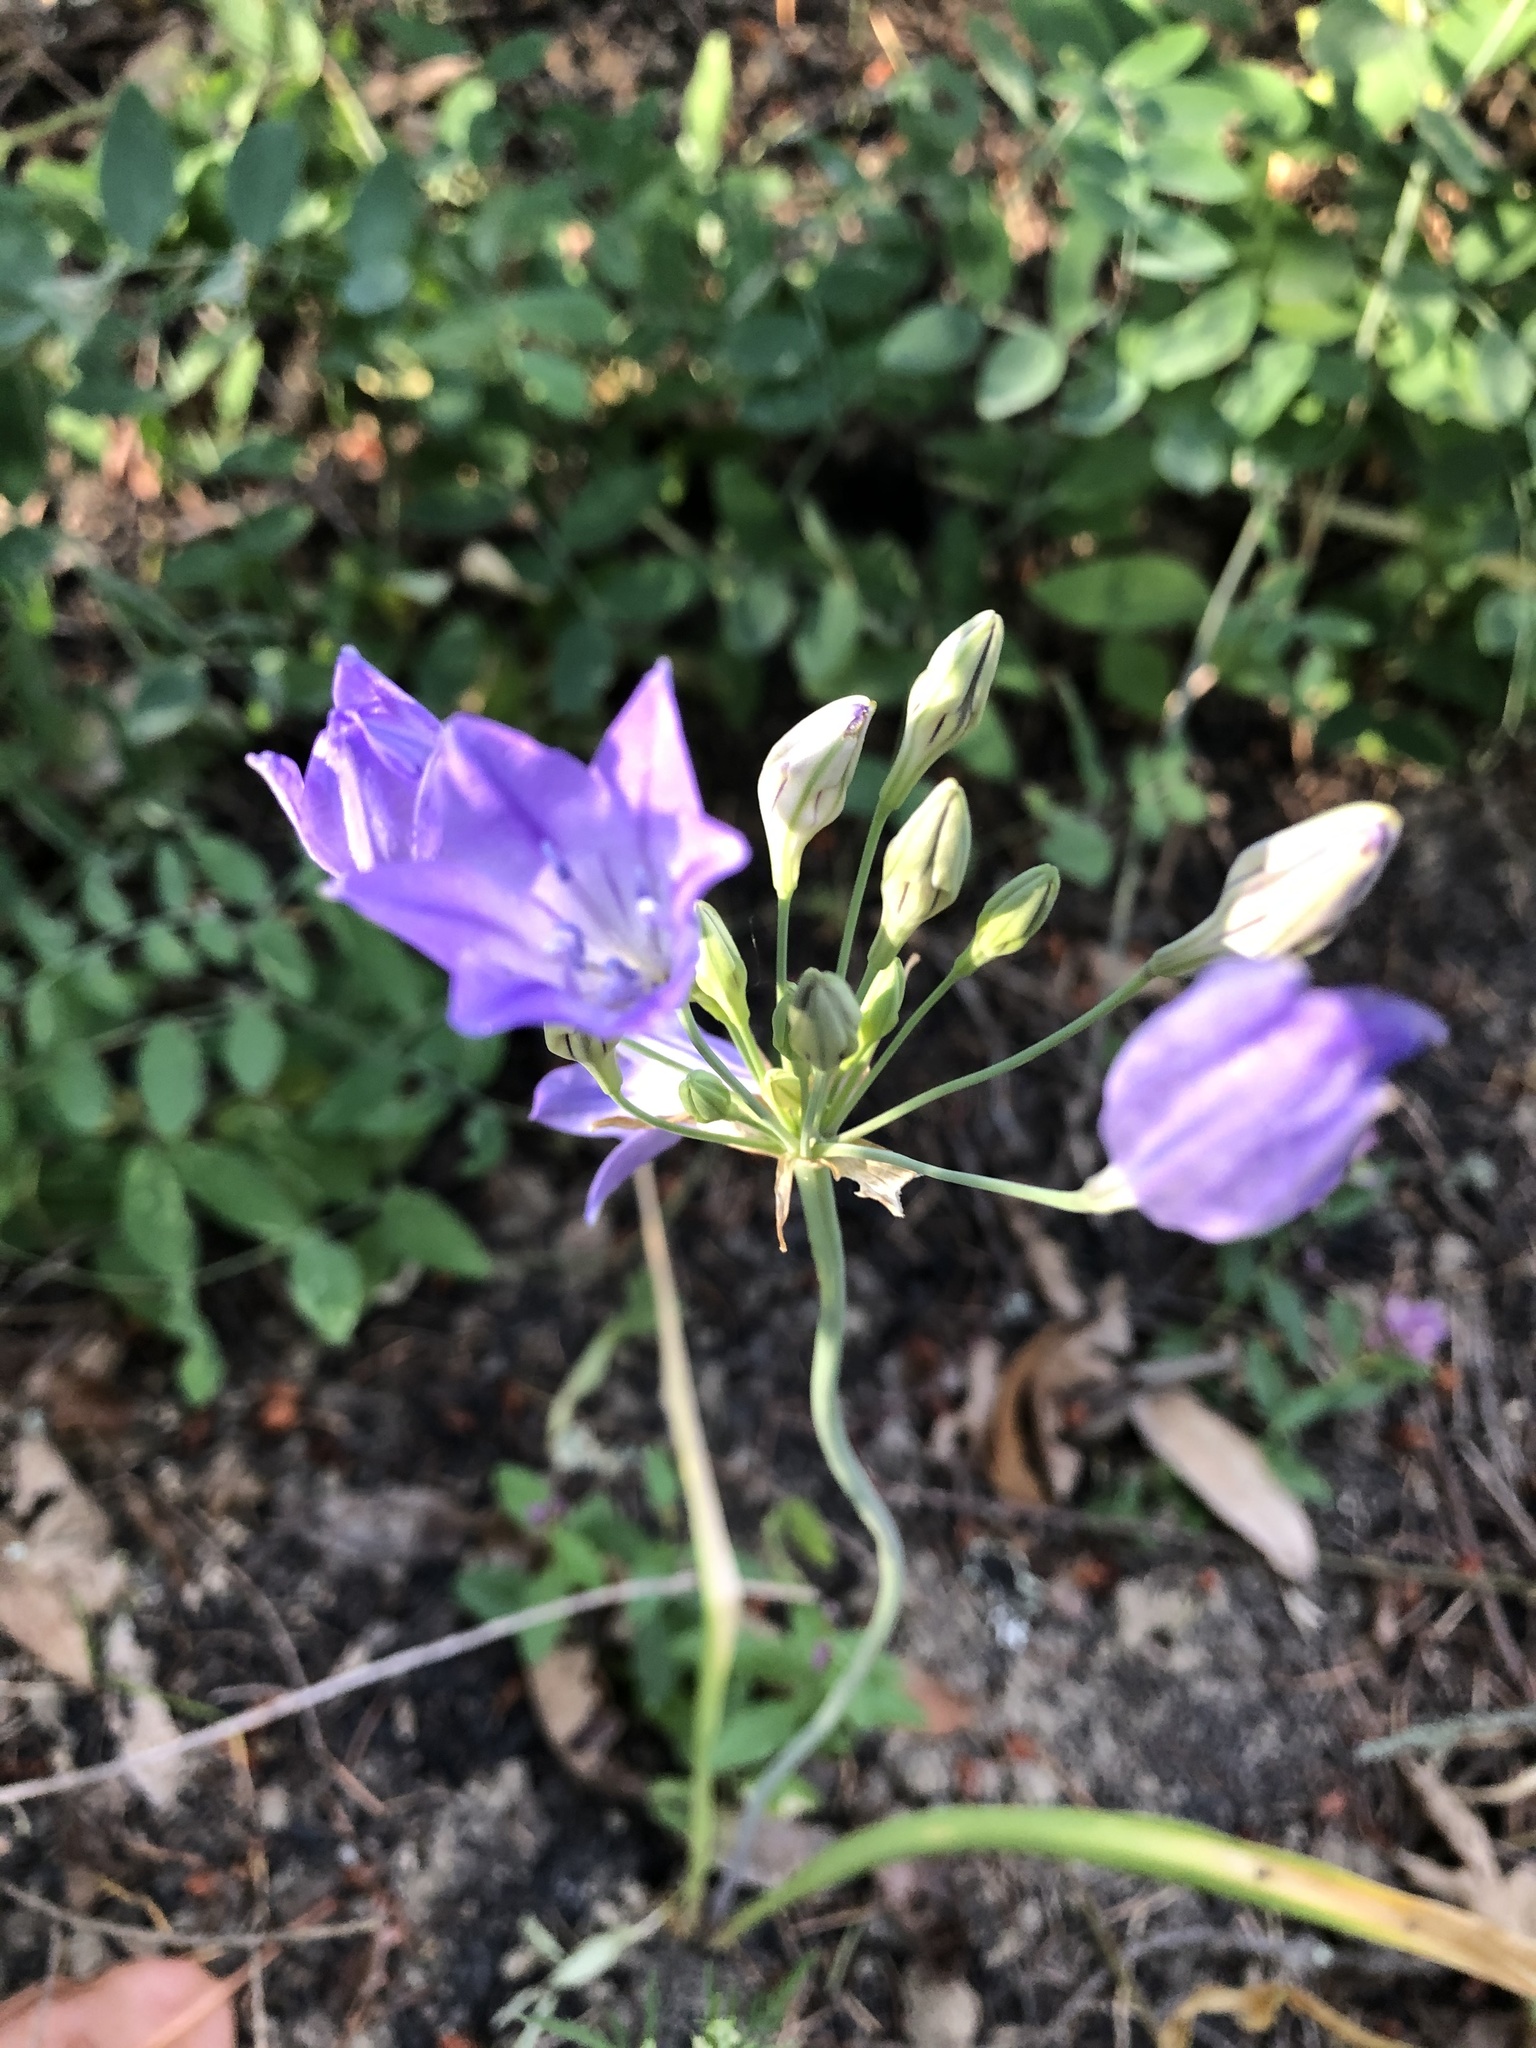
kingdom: Plantae
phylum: Tracheophyta
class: Liliopsida
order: Asparagales
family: Asparagaceae
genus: Triteleia
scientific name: Triteleia laxa
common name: Triplet-lily
